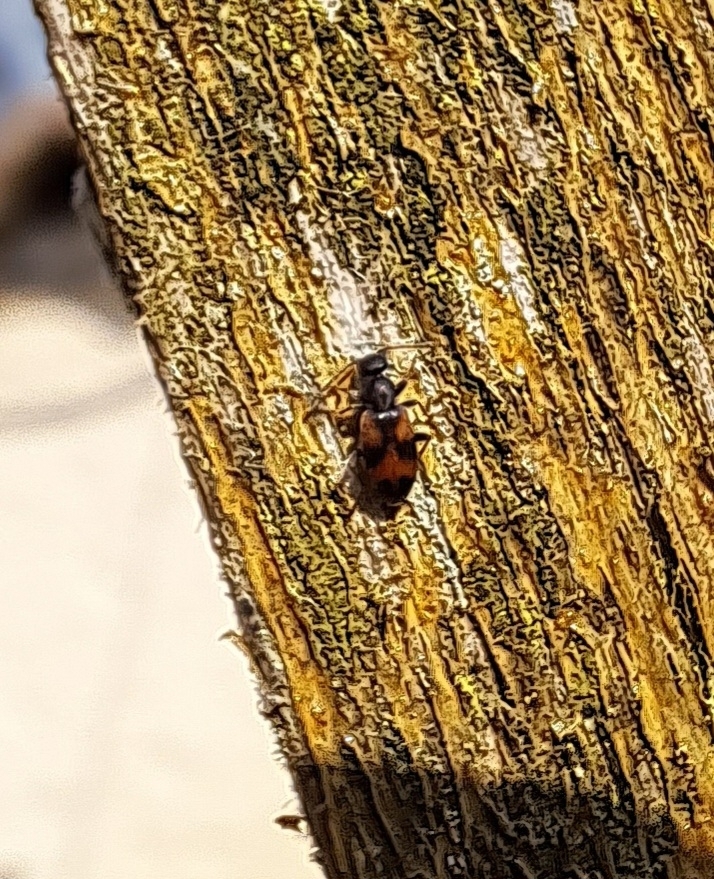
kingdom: Animalia
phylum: Arthropoda
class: Insecta
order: Coleoptera
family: Anthicidae
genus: Anthicus
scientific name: Anthicus antherinus
